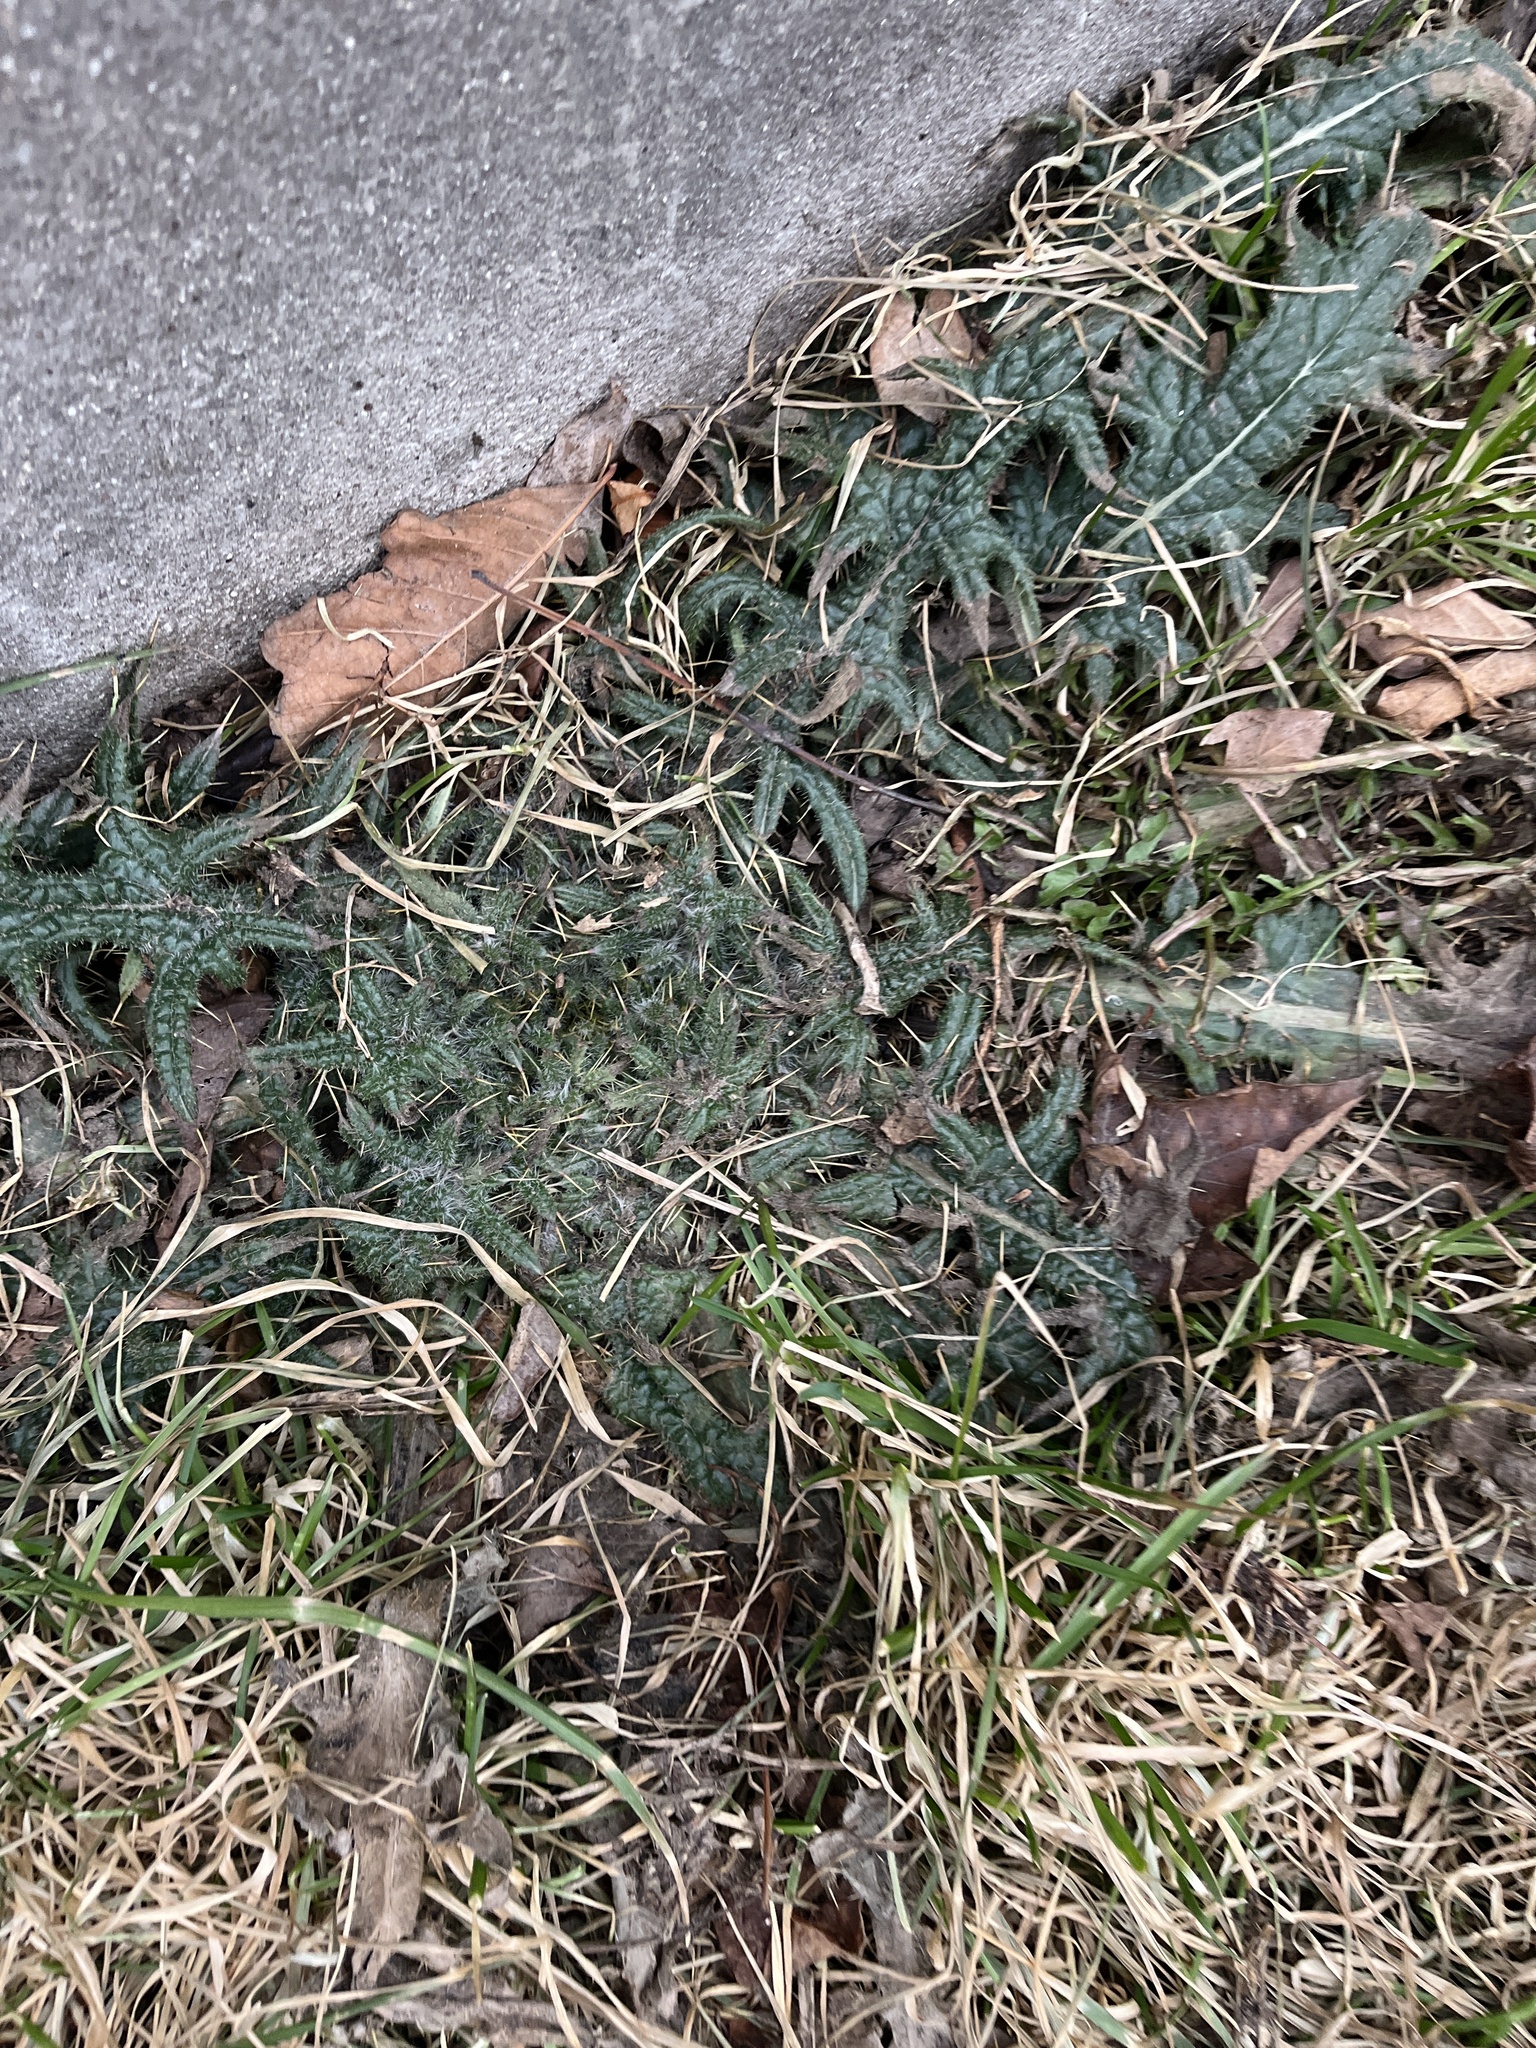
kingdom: Plantae
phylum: Tracheophyta
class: Magnoliopsida
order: Asterales
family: Asteraceae
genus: Cirsium
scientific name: Cirsium vulgare
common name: Bull thistle
